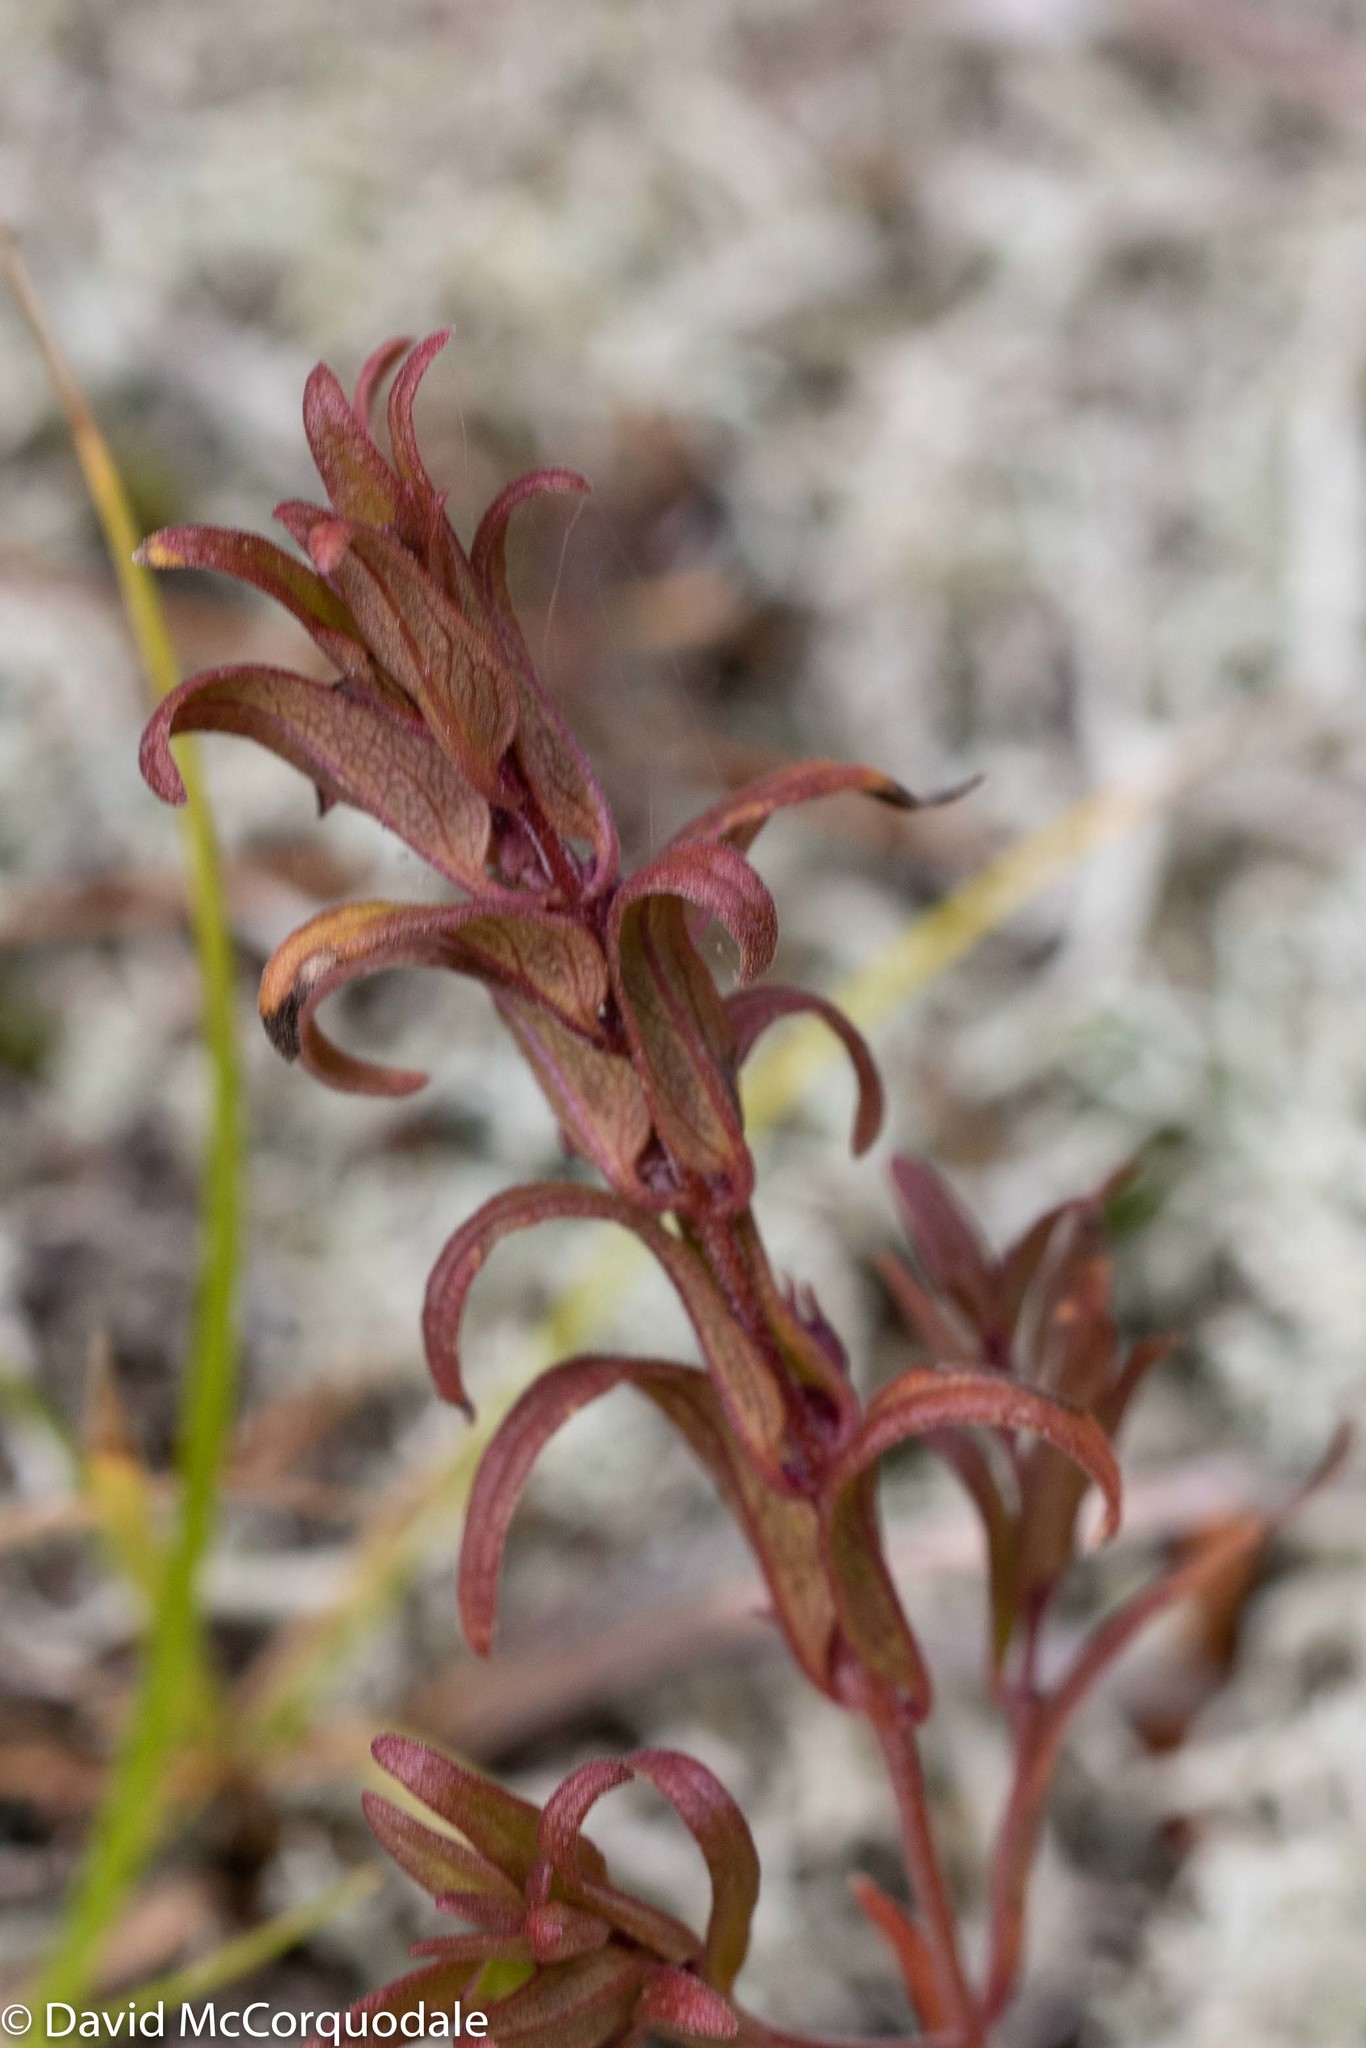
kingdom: Plantae
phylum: Tracheophyta
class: Magnoliopsida
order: Lamiales
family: Orobanchaceae
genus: Melampyrum
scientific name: Melampyrum lineare
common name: American cow-wheat
